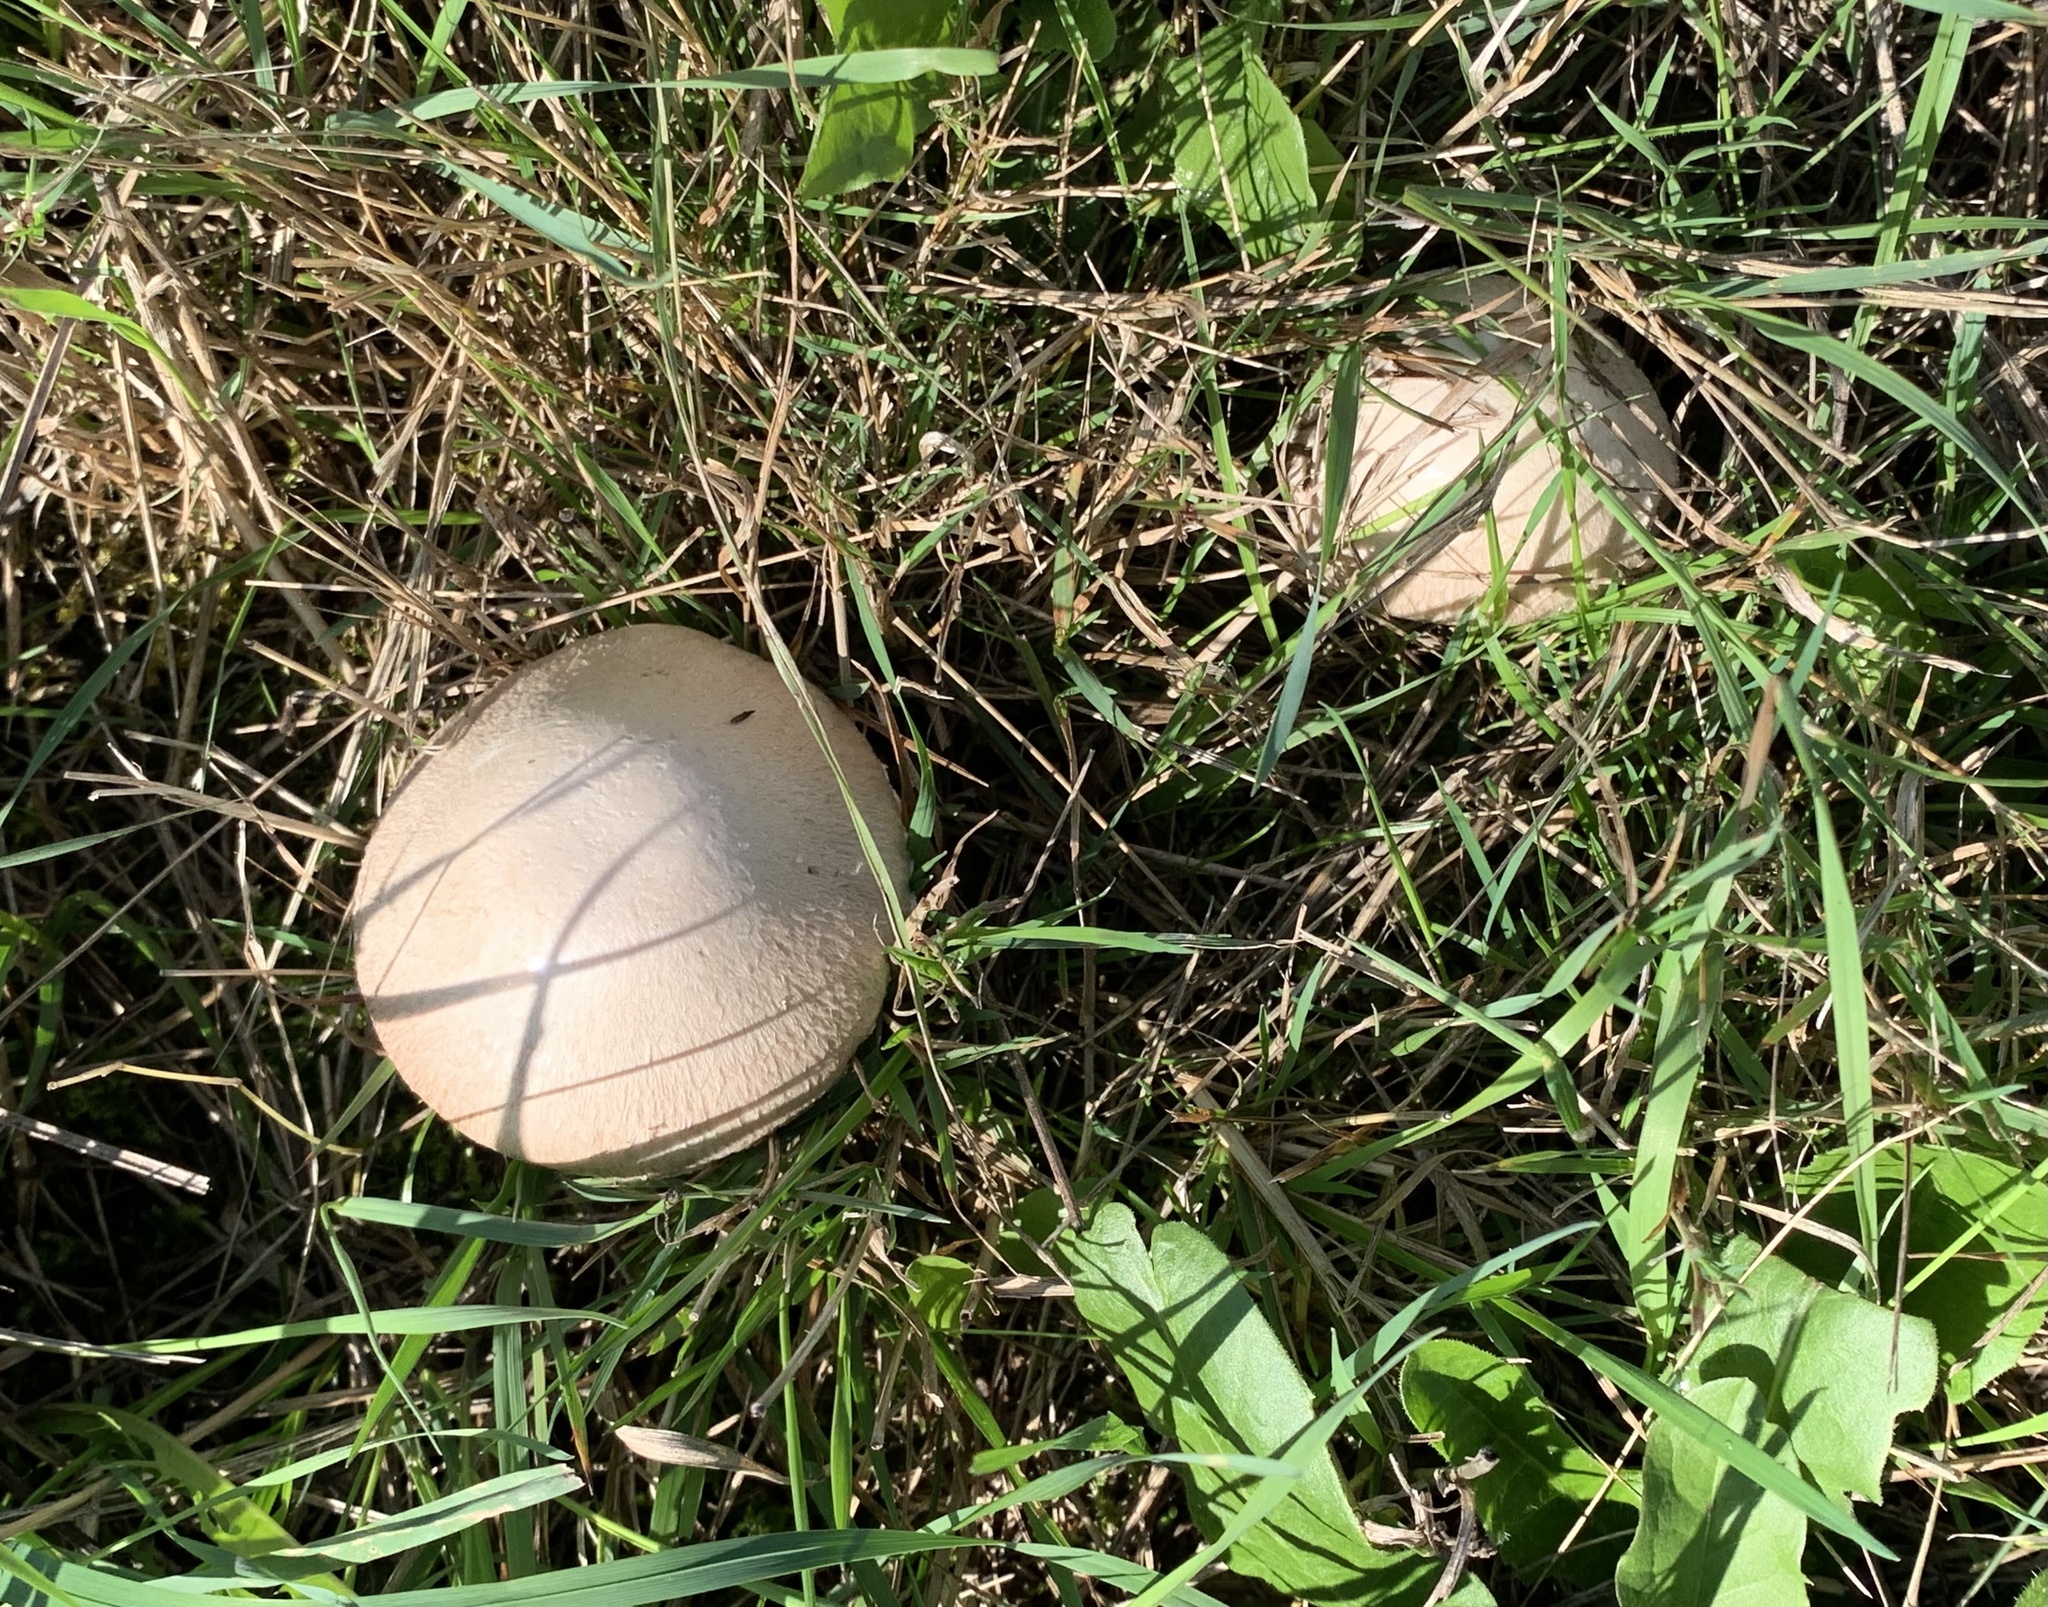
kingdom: Fungi
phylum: Basidiomycota
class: Agaricomycetes
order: Agaricales
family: Agaricaceae
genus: Agaricus
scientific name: Agaricus campestris
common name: Field mushroom
